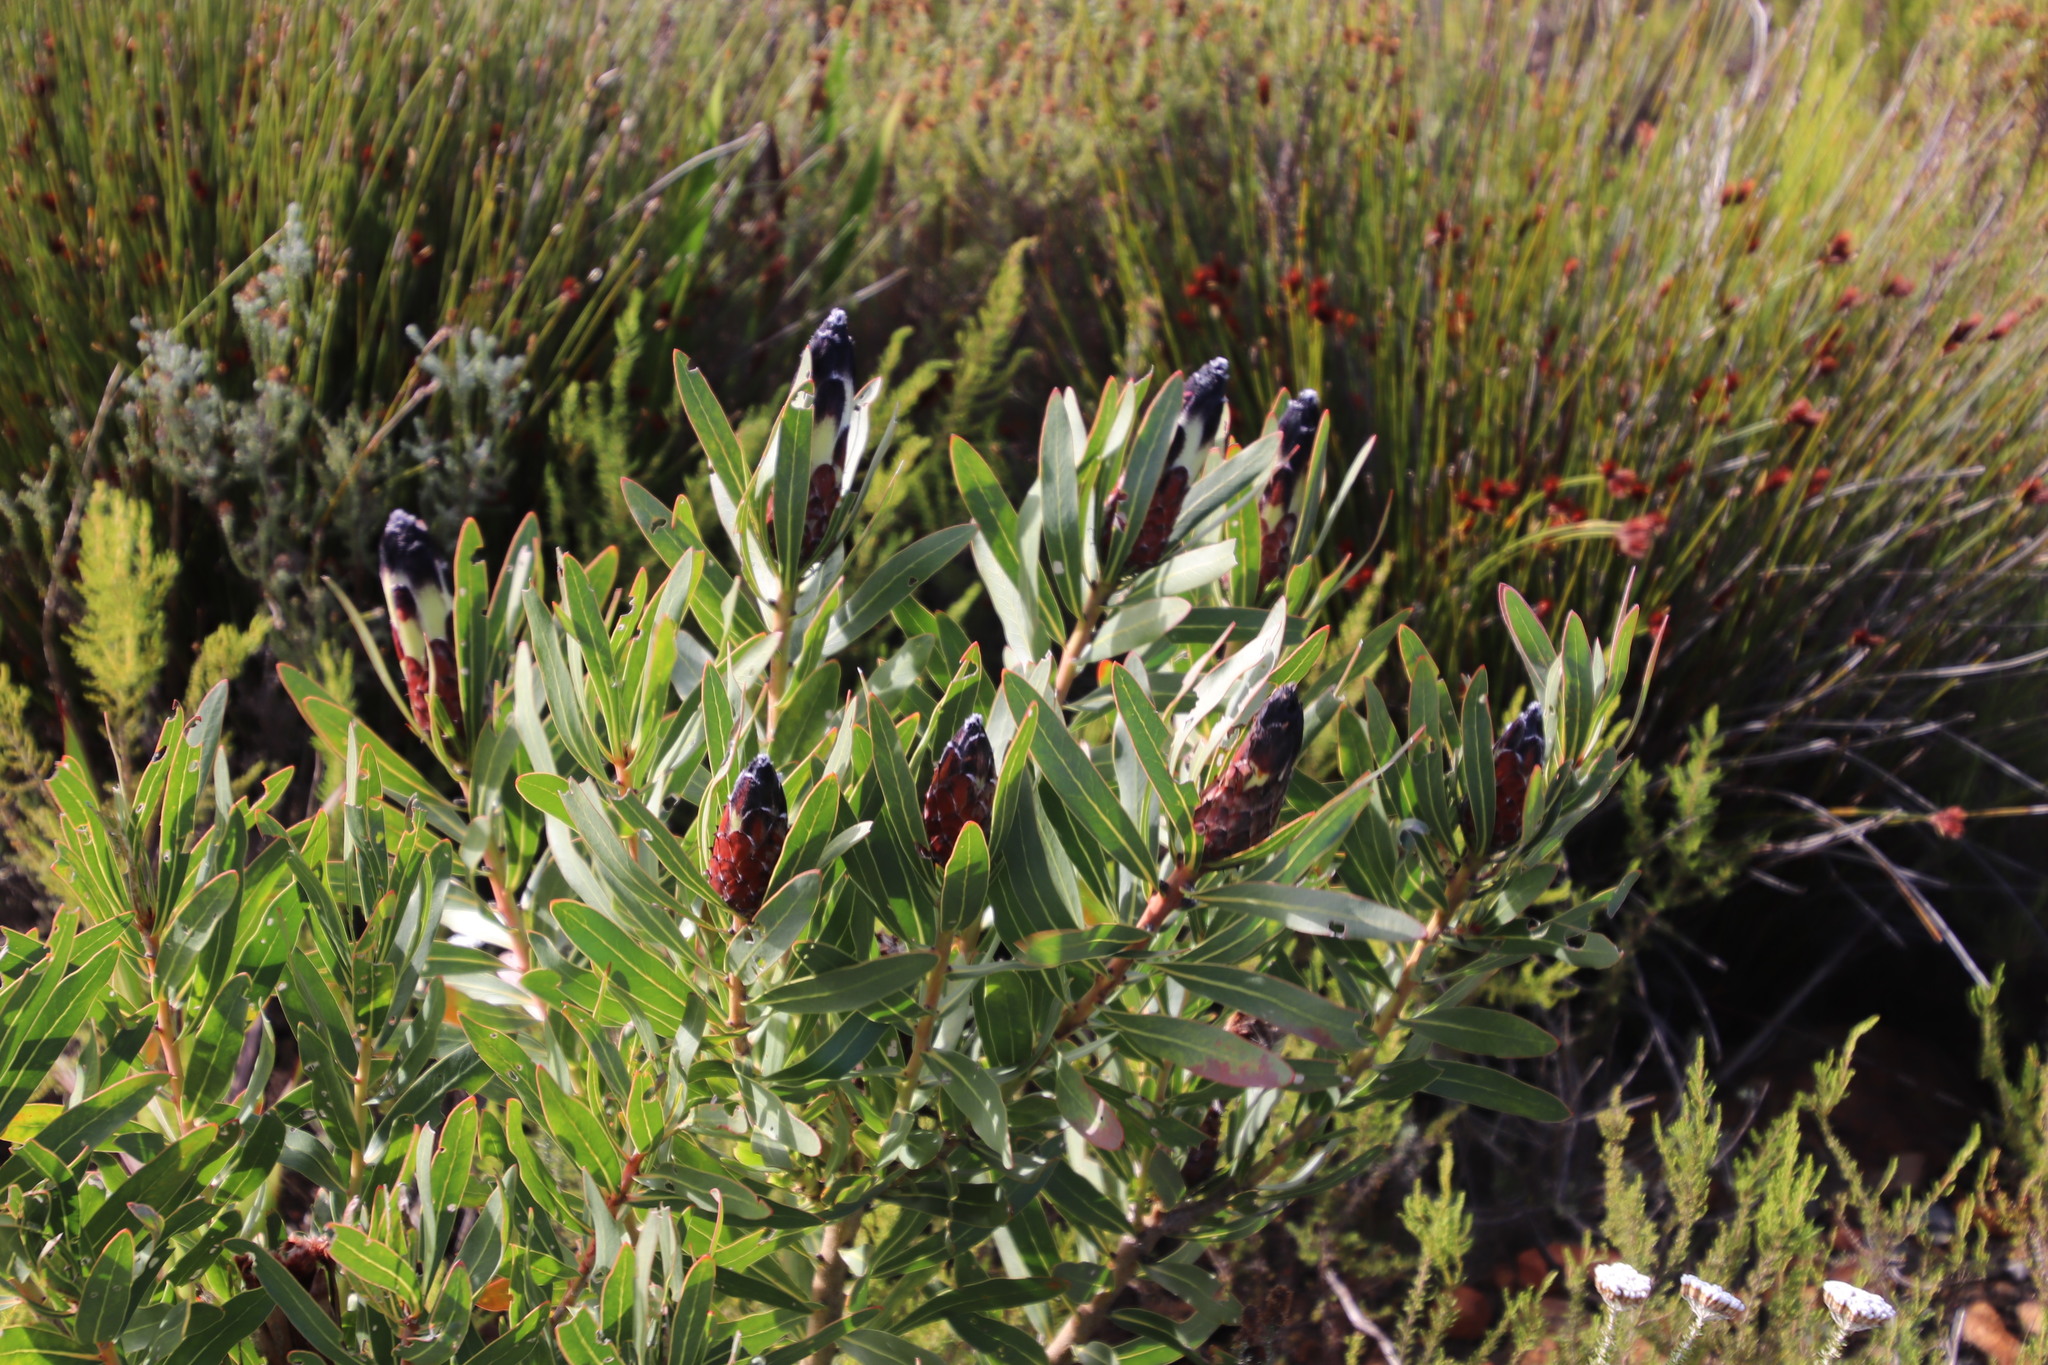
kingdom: Plantae
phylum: Tracheophyta
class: Magnoliopsida
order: Proteales
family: Proteaceae
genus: Protea
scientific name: Protea lepidocarpodendron
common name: Black-bearded protea
